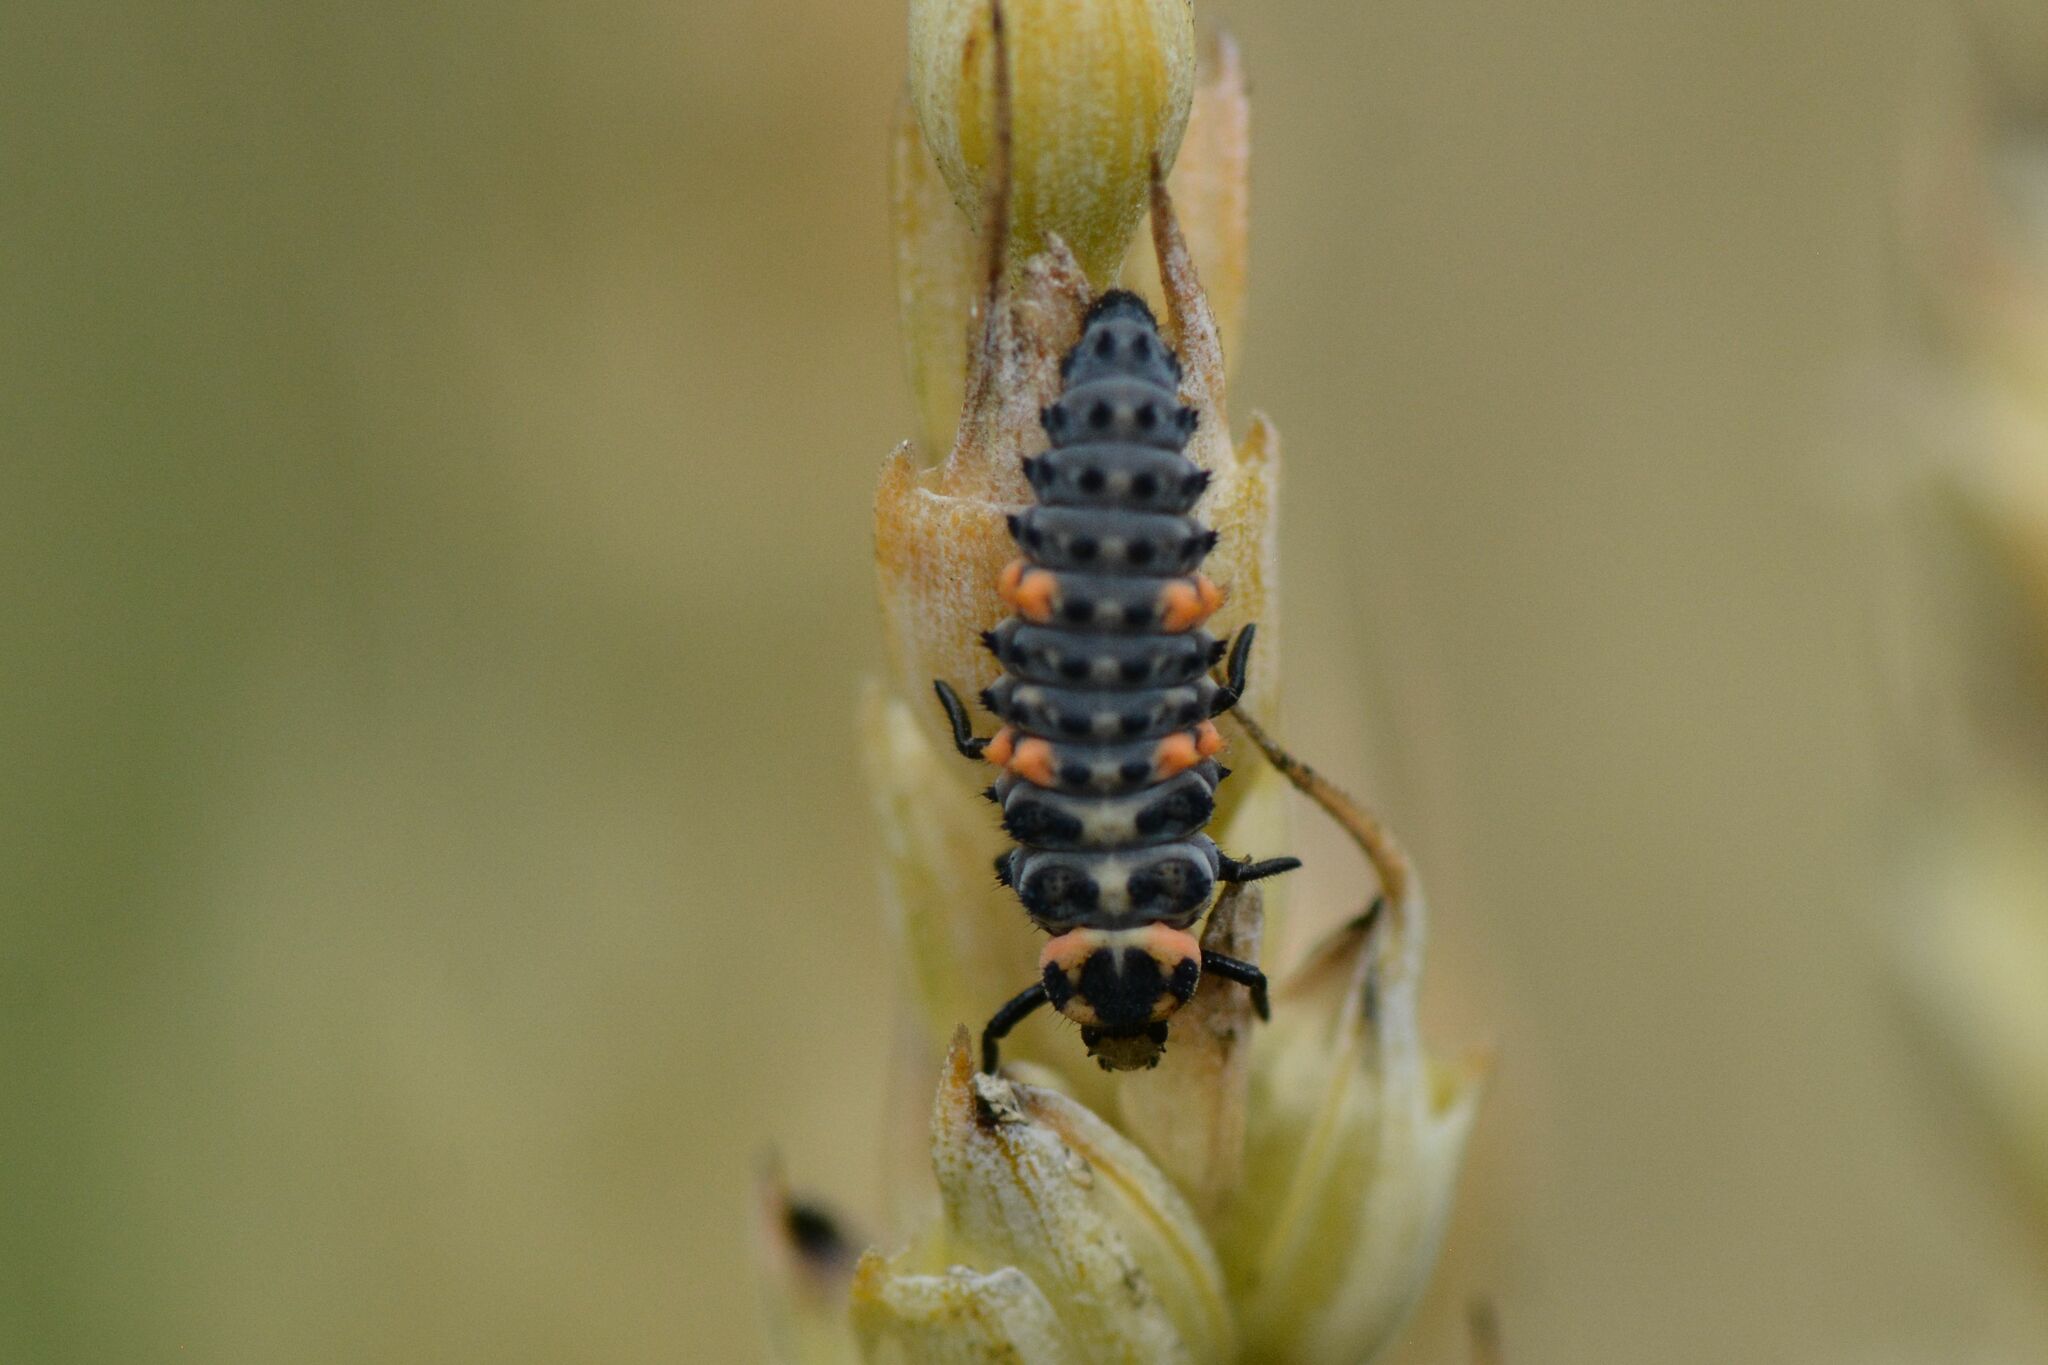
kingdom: Animalia
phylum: Arthropoda
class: Insecta
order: Coleoptera
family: Coccinellidae
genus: Coccinella
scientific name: Coccinella septempunctata
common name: Sevenspotted lady beetle
